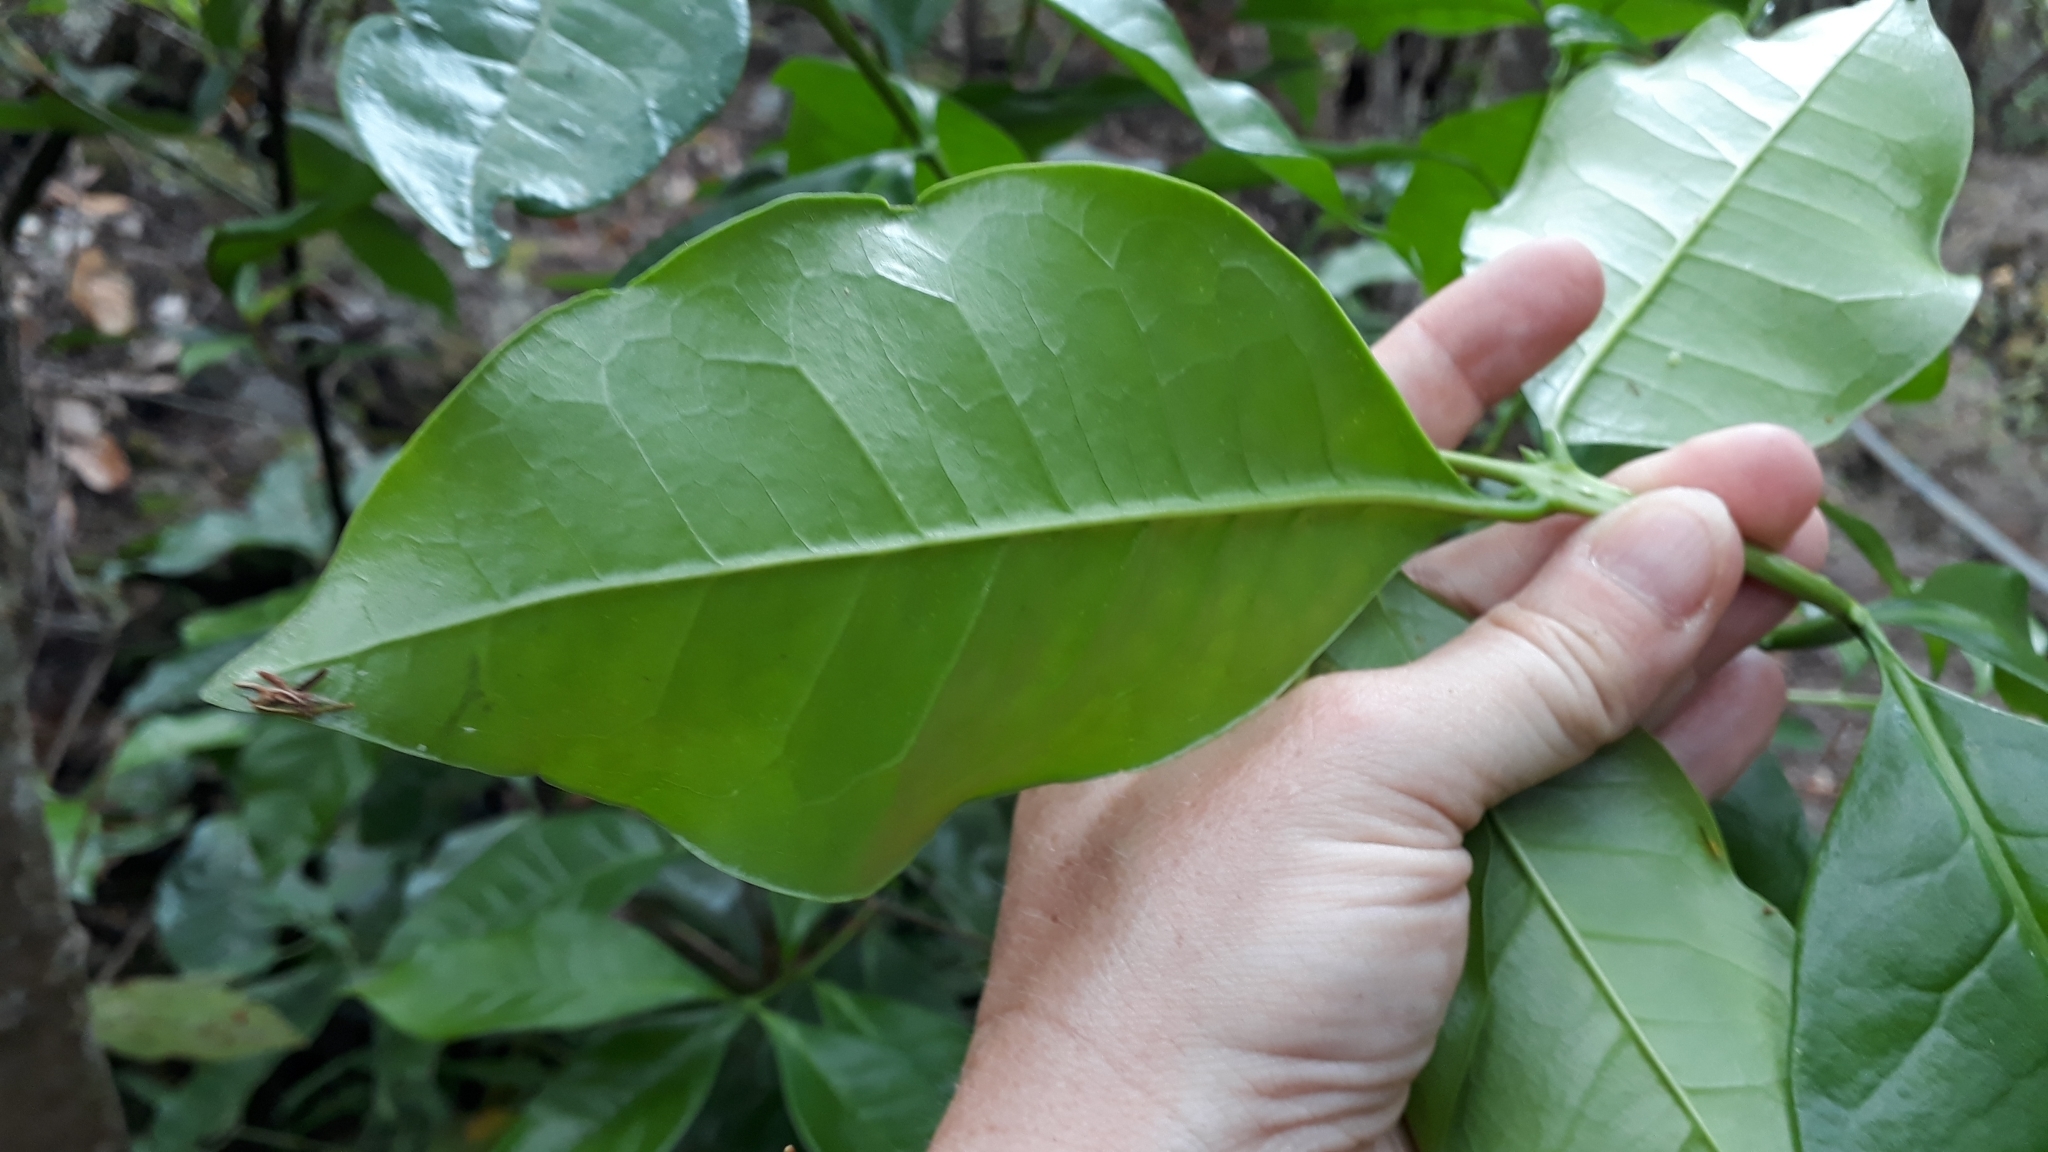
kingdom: Plantae
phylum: Tracheophyta
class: Magnoliopsida
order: Lamiales
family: Oleaceae
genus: Picconia
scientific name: Picconia excelsa
